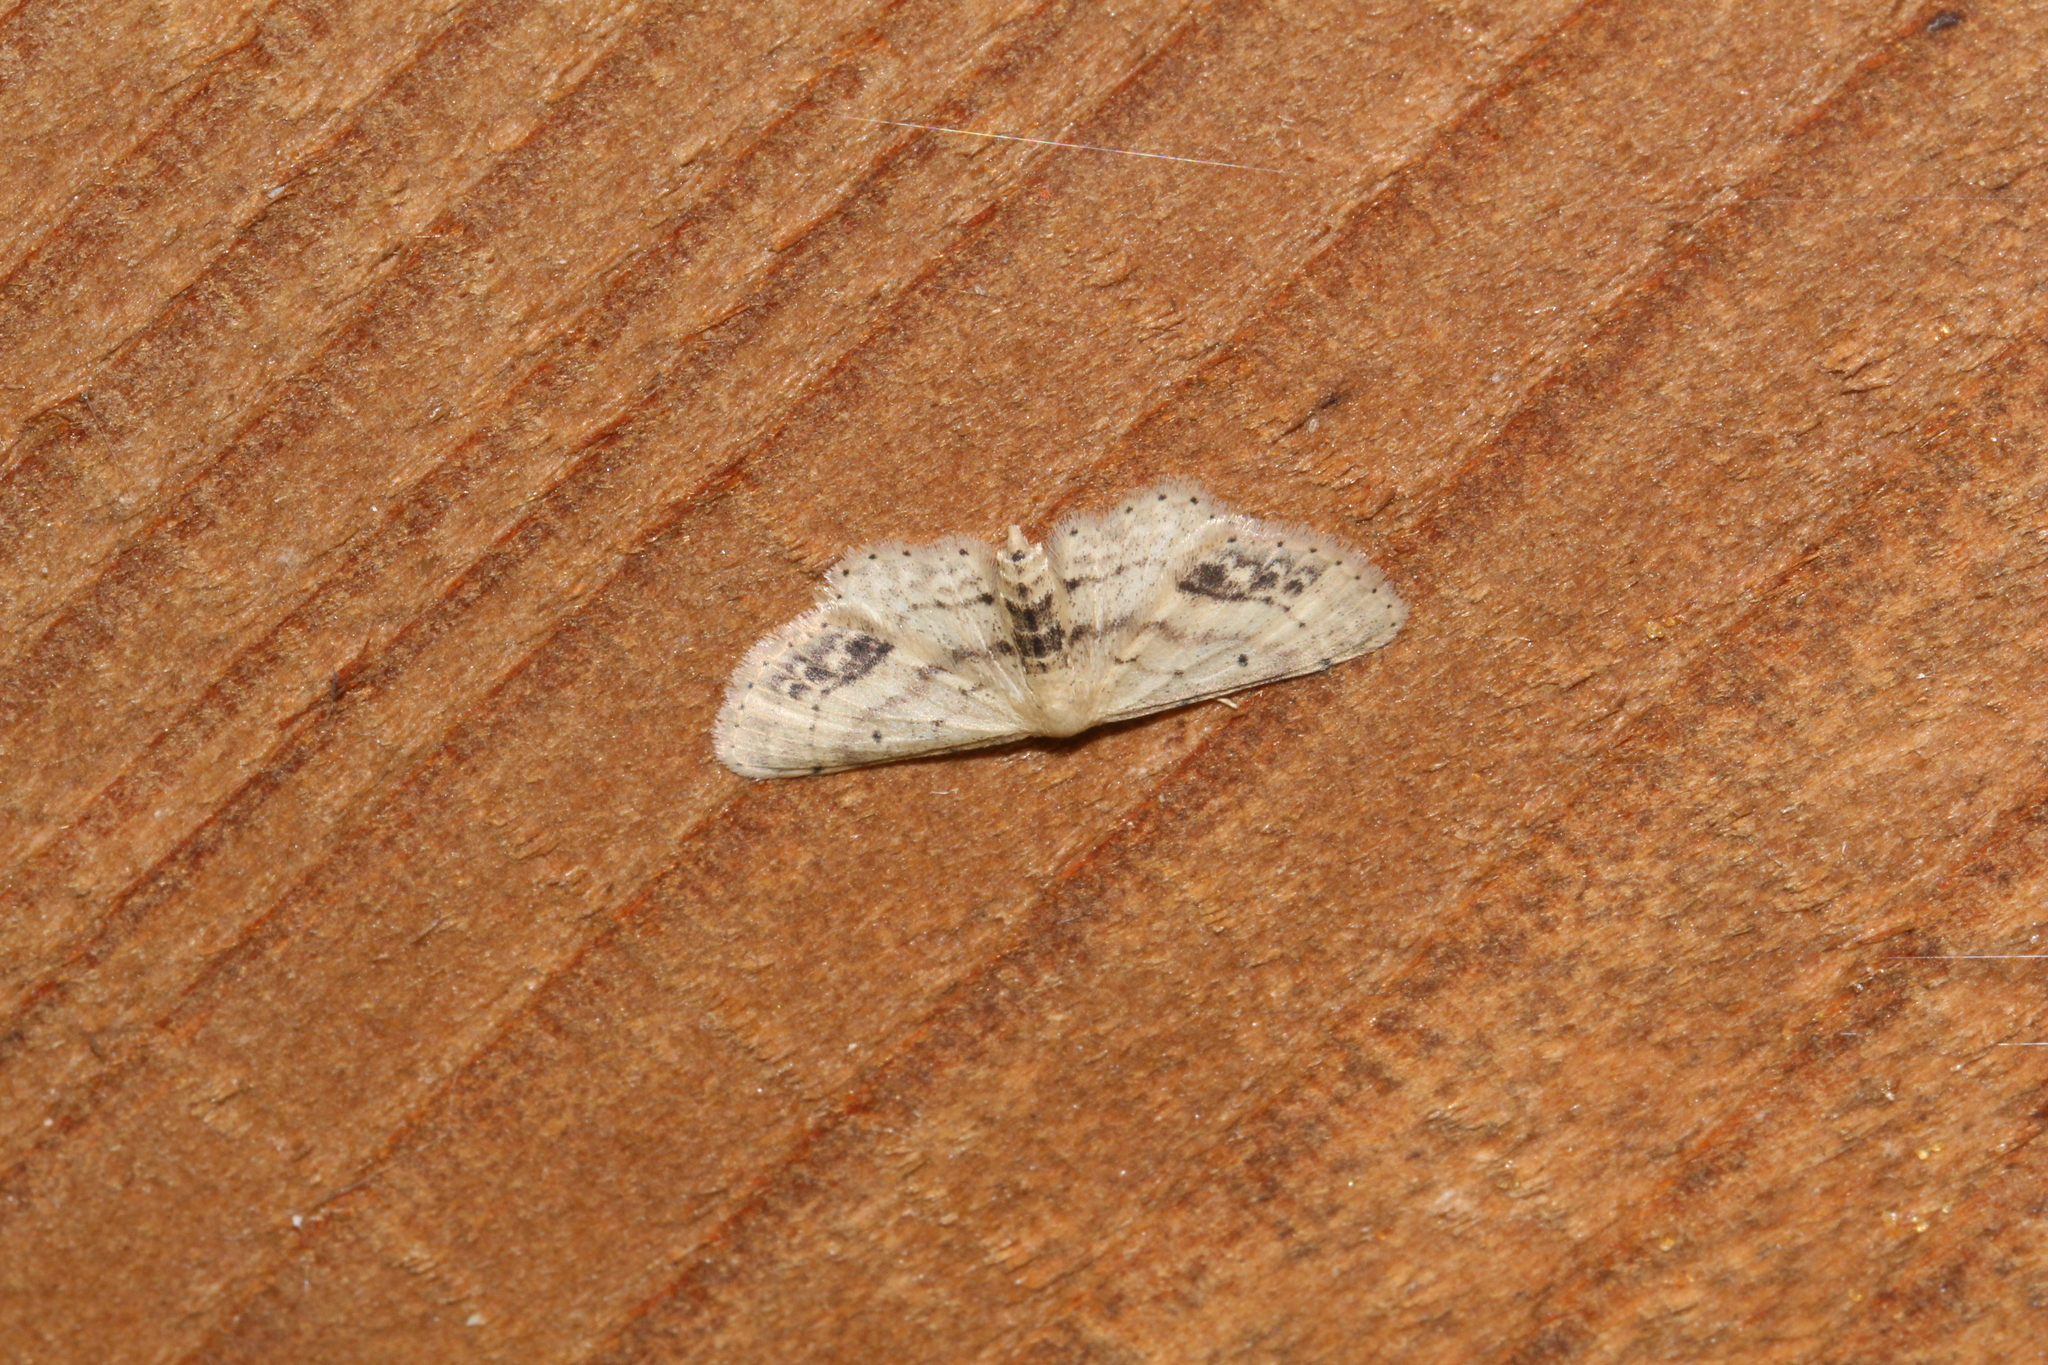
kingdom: Animalia
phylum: Arthropoda
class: Insecta
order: Lepidoptera
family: Geometridae
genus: Idaea
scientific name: Idaea dimidiata
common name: Single-dotted wave
